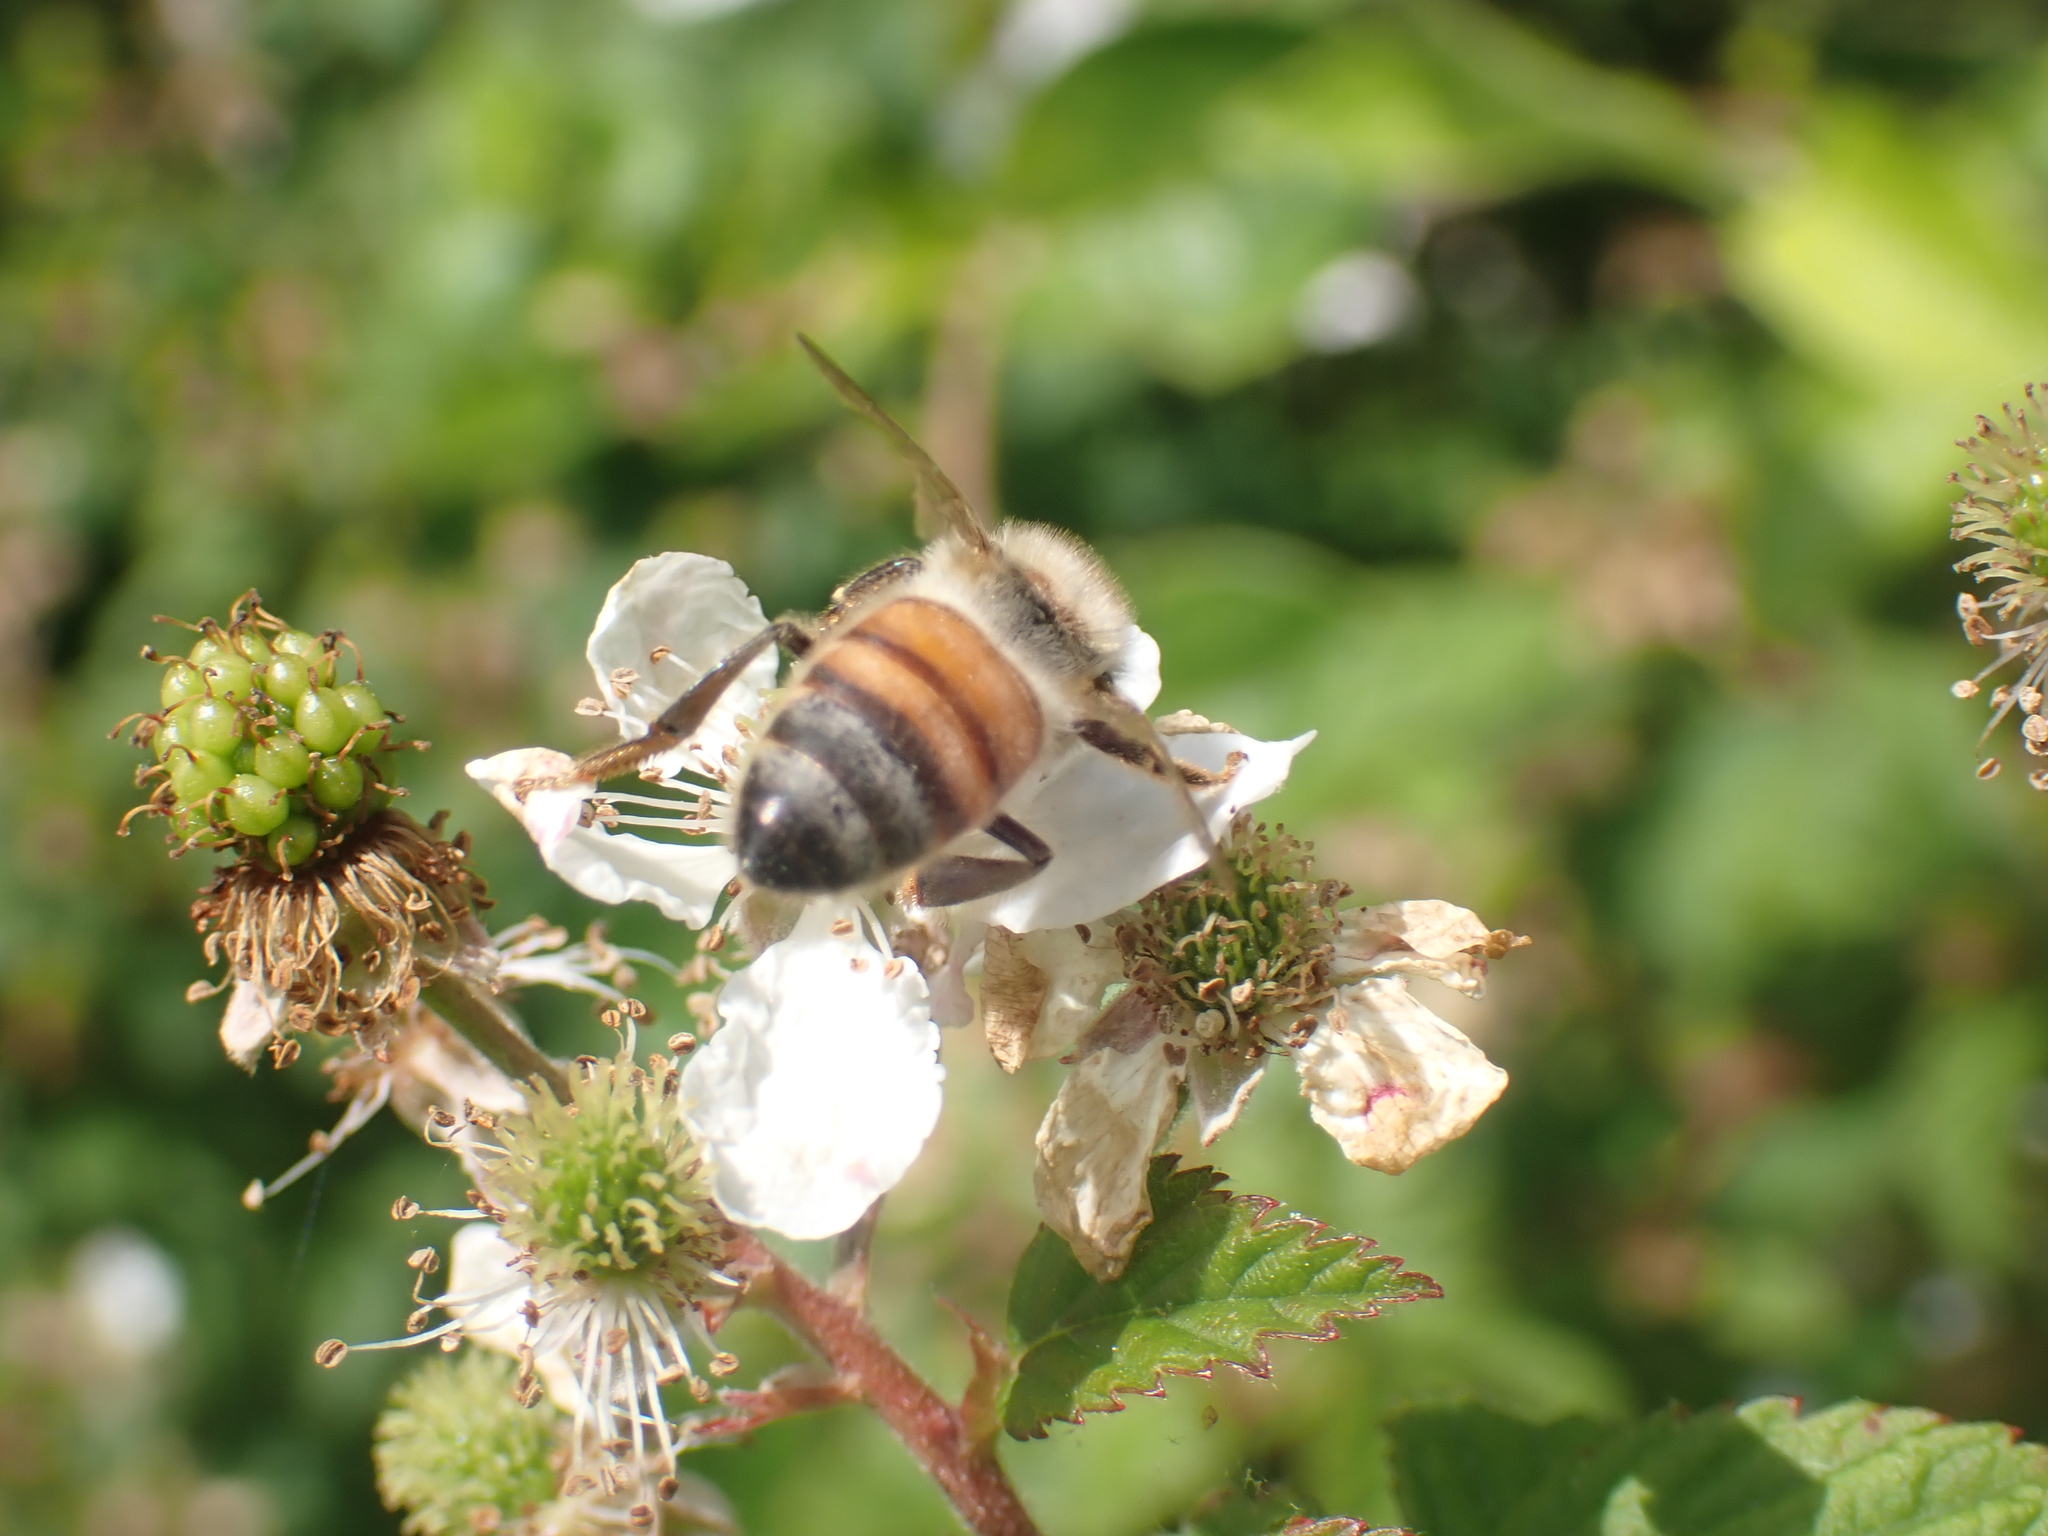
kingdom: Animalia
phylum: Arthropoda
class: Insecta
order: Hymenoptera
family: Apidae
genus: Apis
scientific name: Apis mellifera
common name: Honey bee
